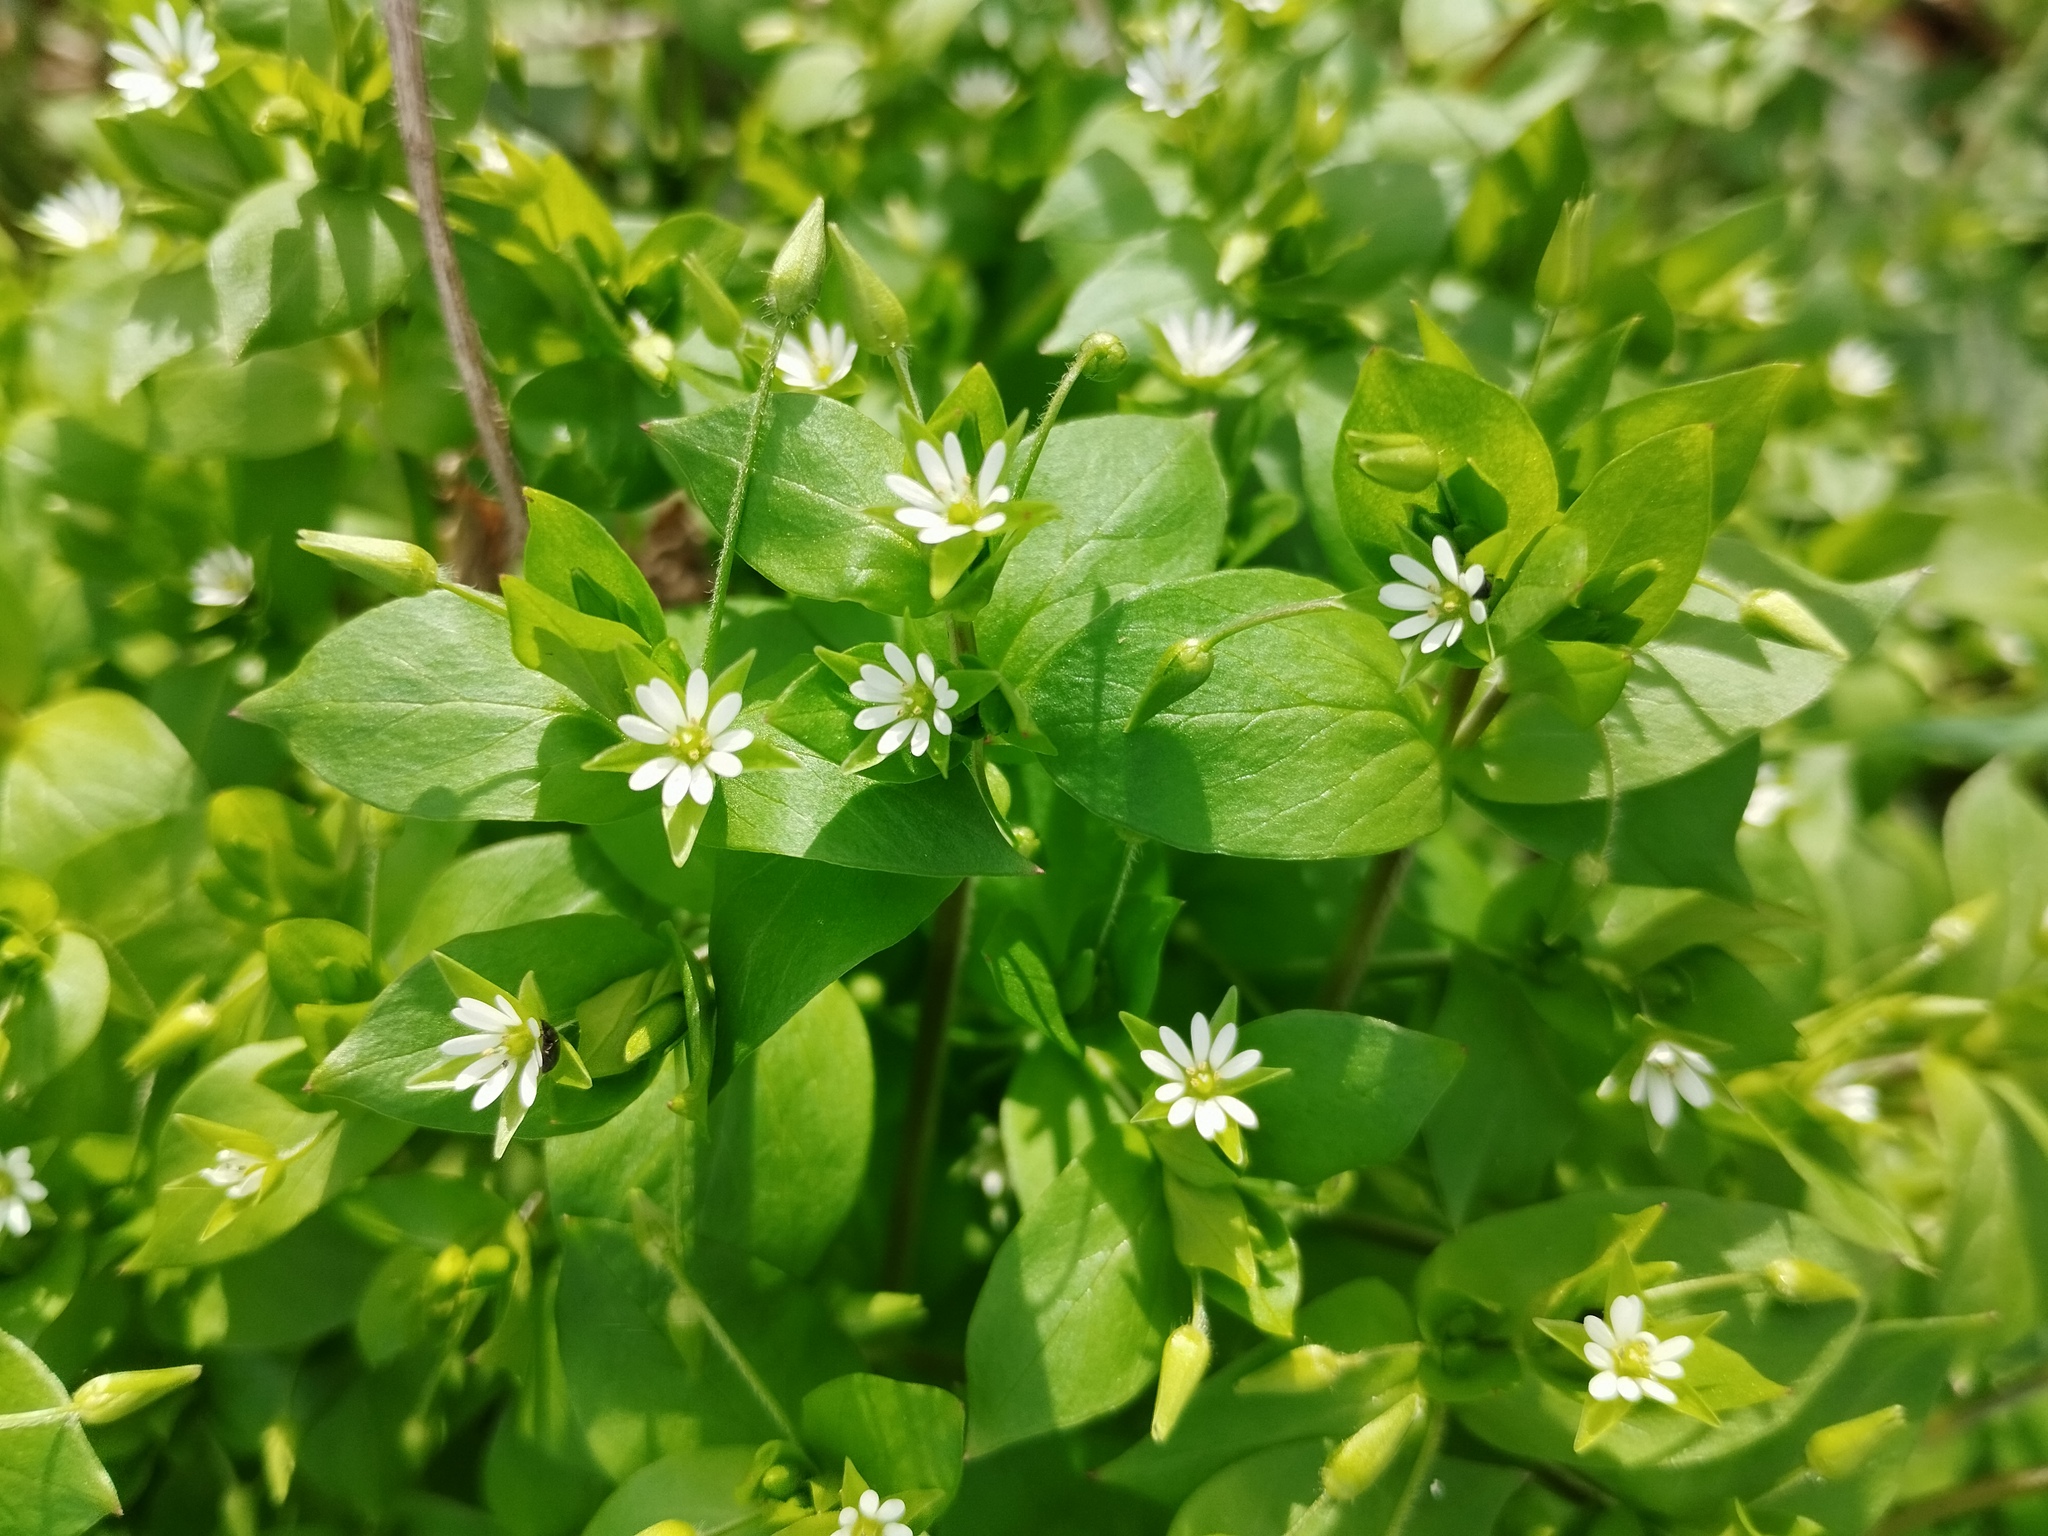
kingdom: Plantae
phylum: Tracheophyta
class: Magnoliopsida
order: Caryophyllales
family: Caryophyllaceae
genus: Stellaria
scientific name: Stellaria media
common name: Common chickweed
